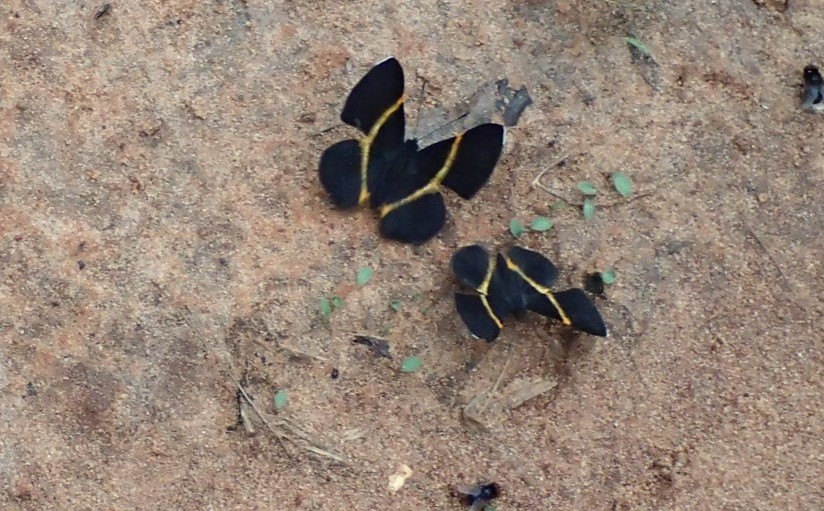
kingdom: Animalia
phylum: Arthropoda
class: Insecta
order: Lepidoptera
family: Riodinidae
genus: Parcella
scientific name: Parcella amarynthina
